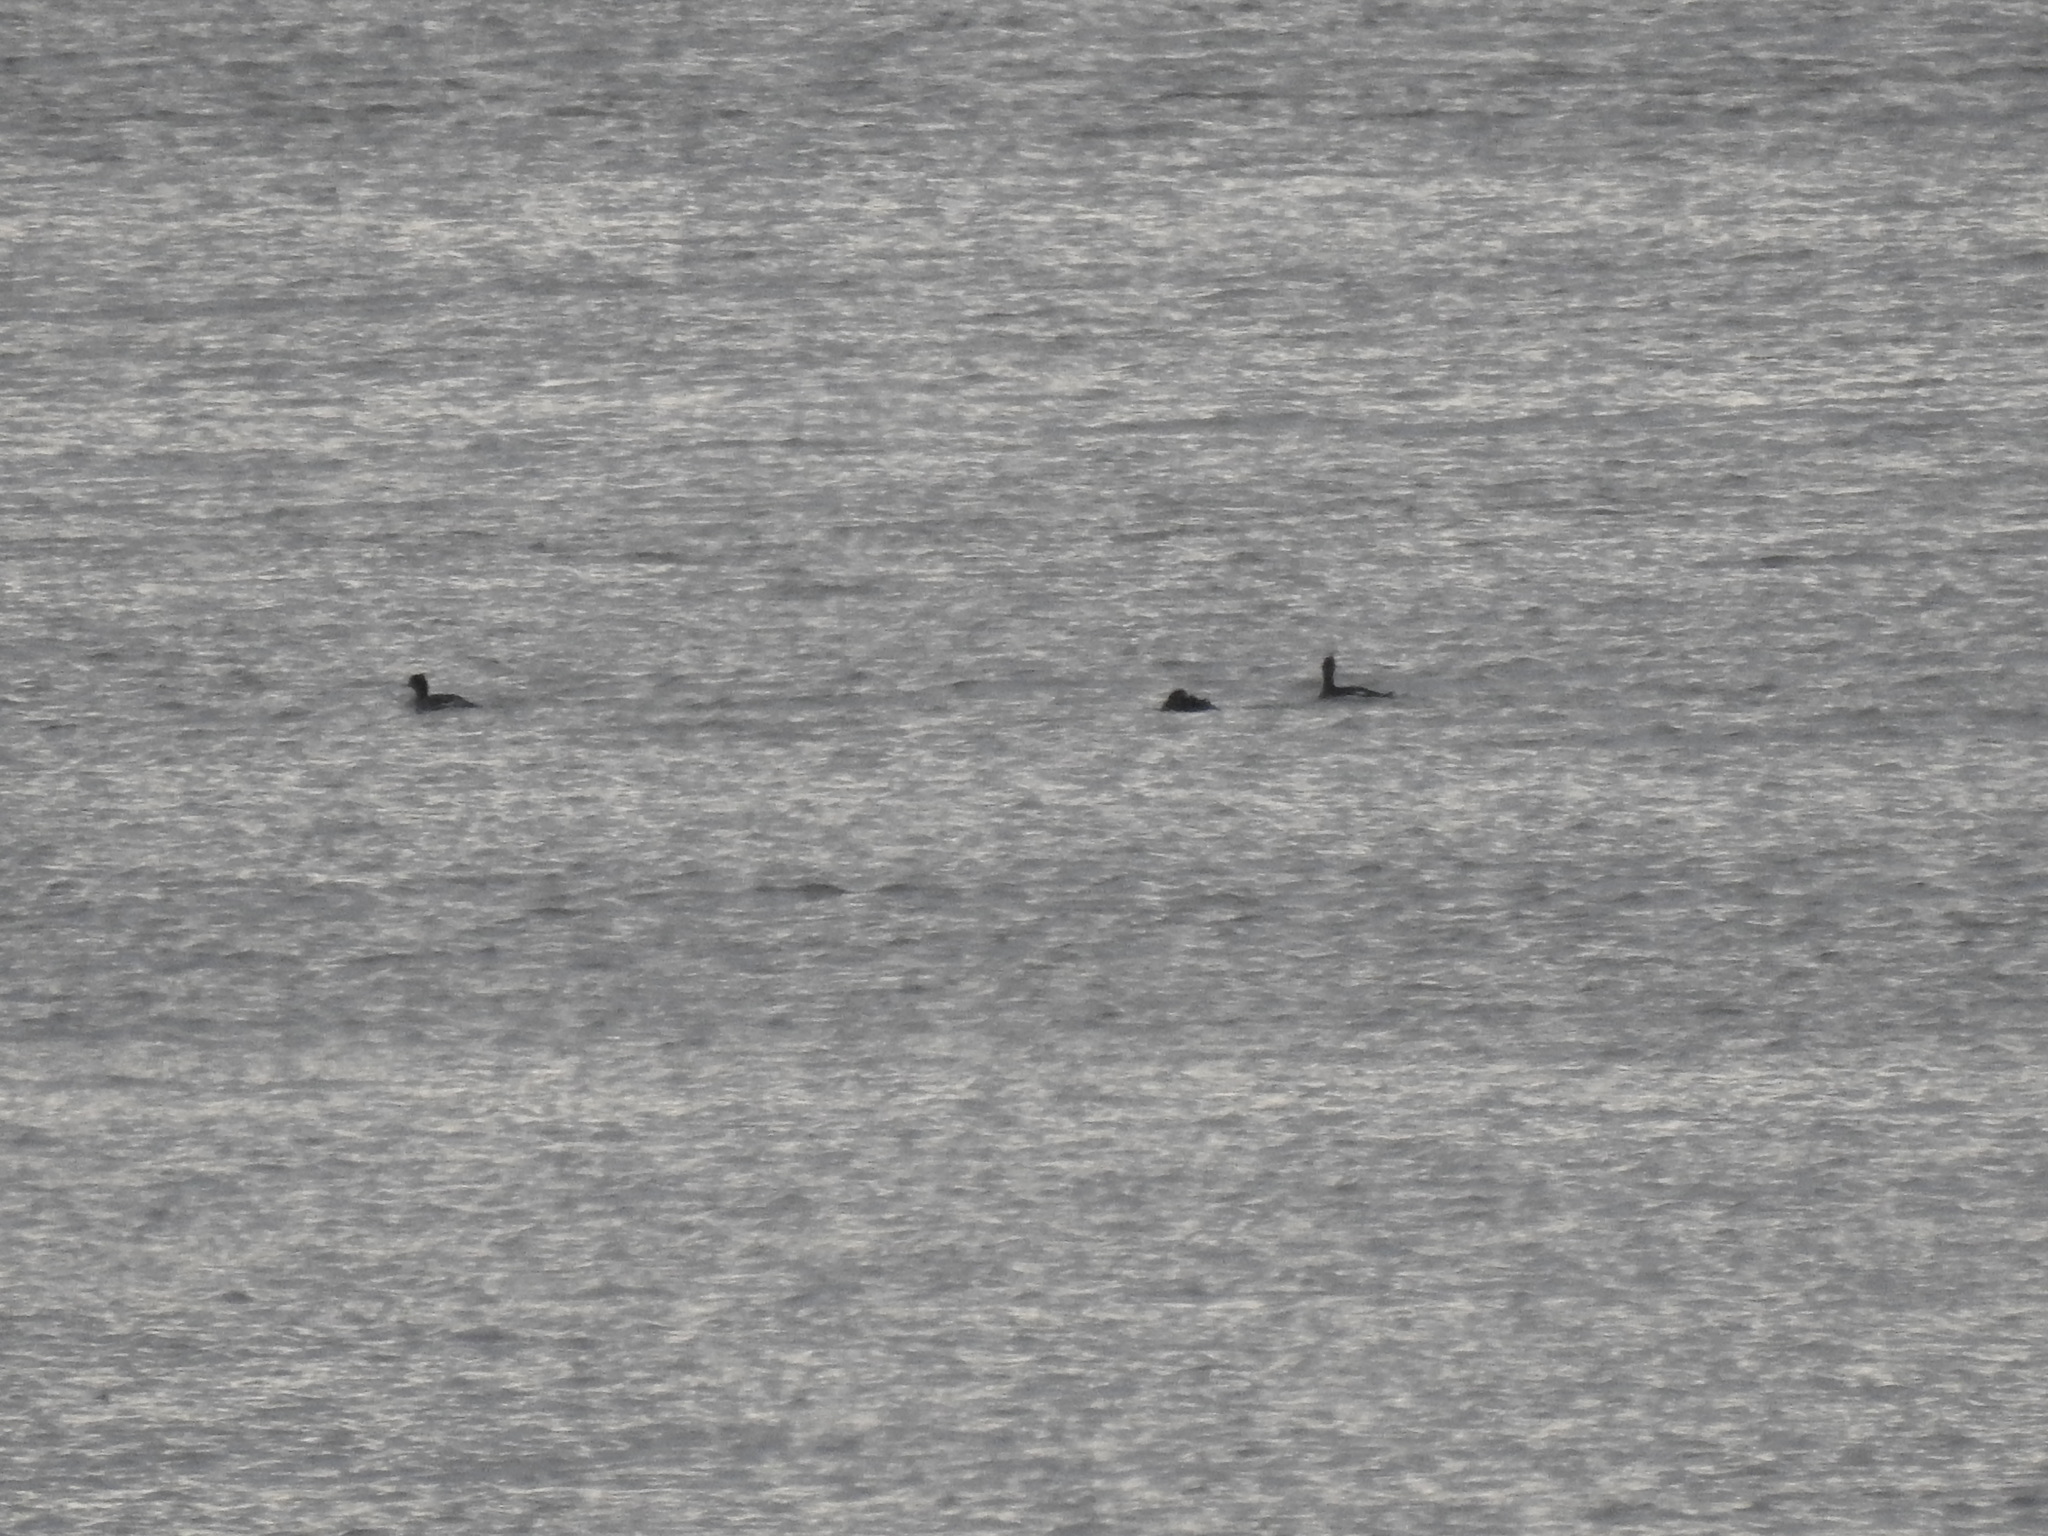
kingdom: Animalia
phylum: Chordata
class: Aves
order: Anseriformes
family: Anatidae
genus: Mergus
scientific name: Mergus serrator
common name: Red-breasted merganser
